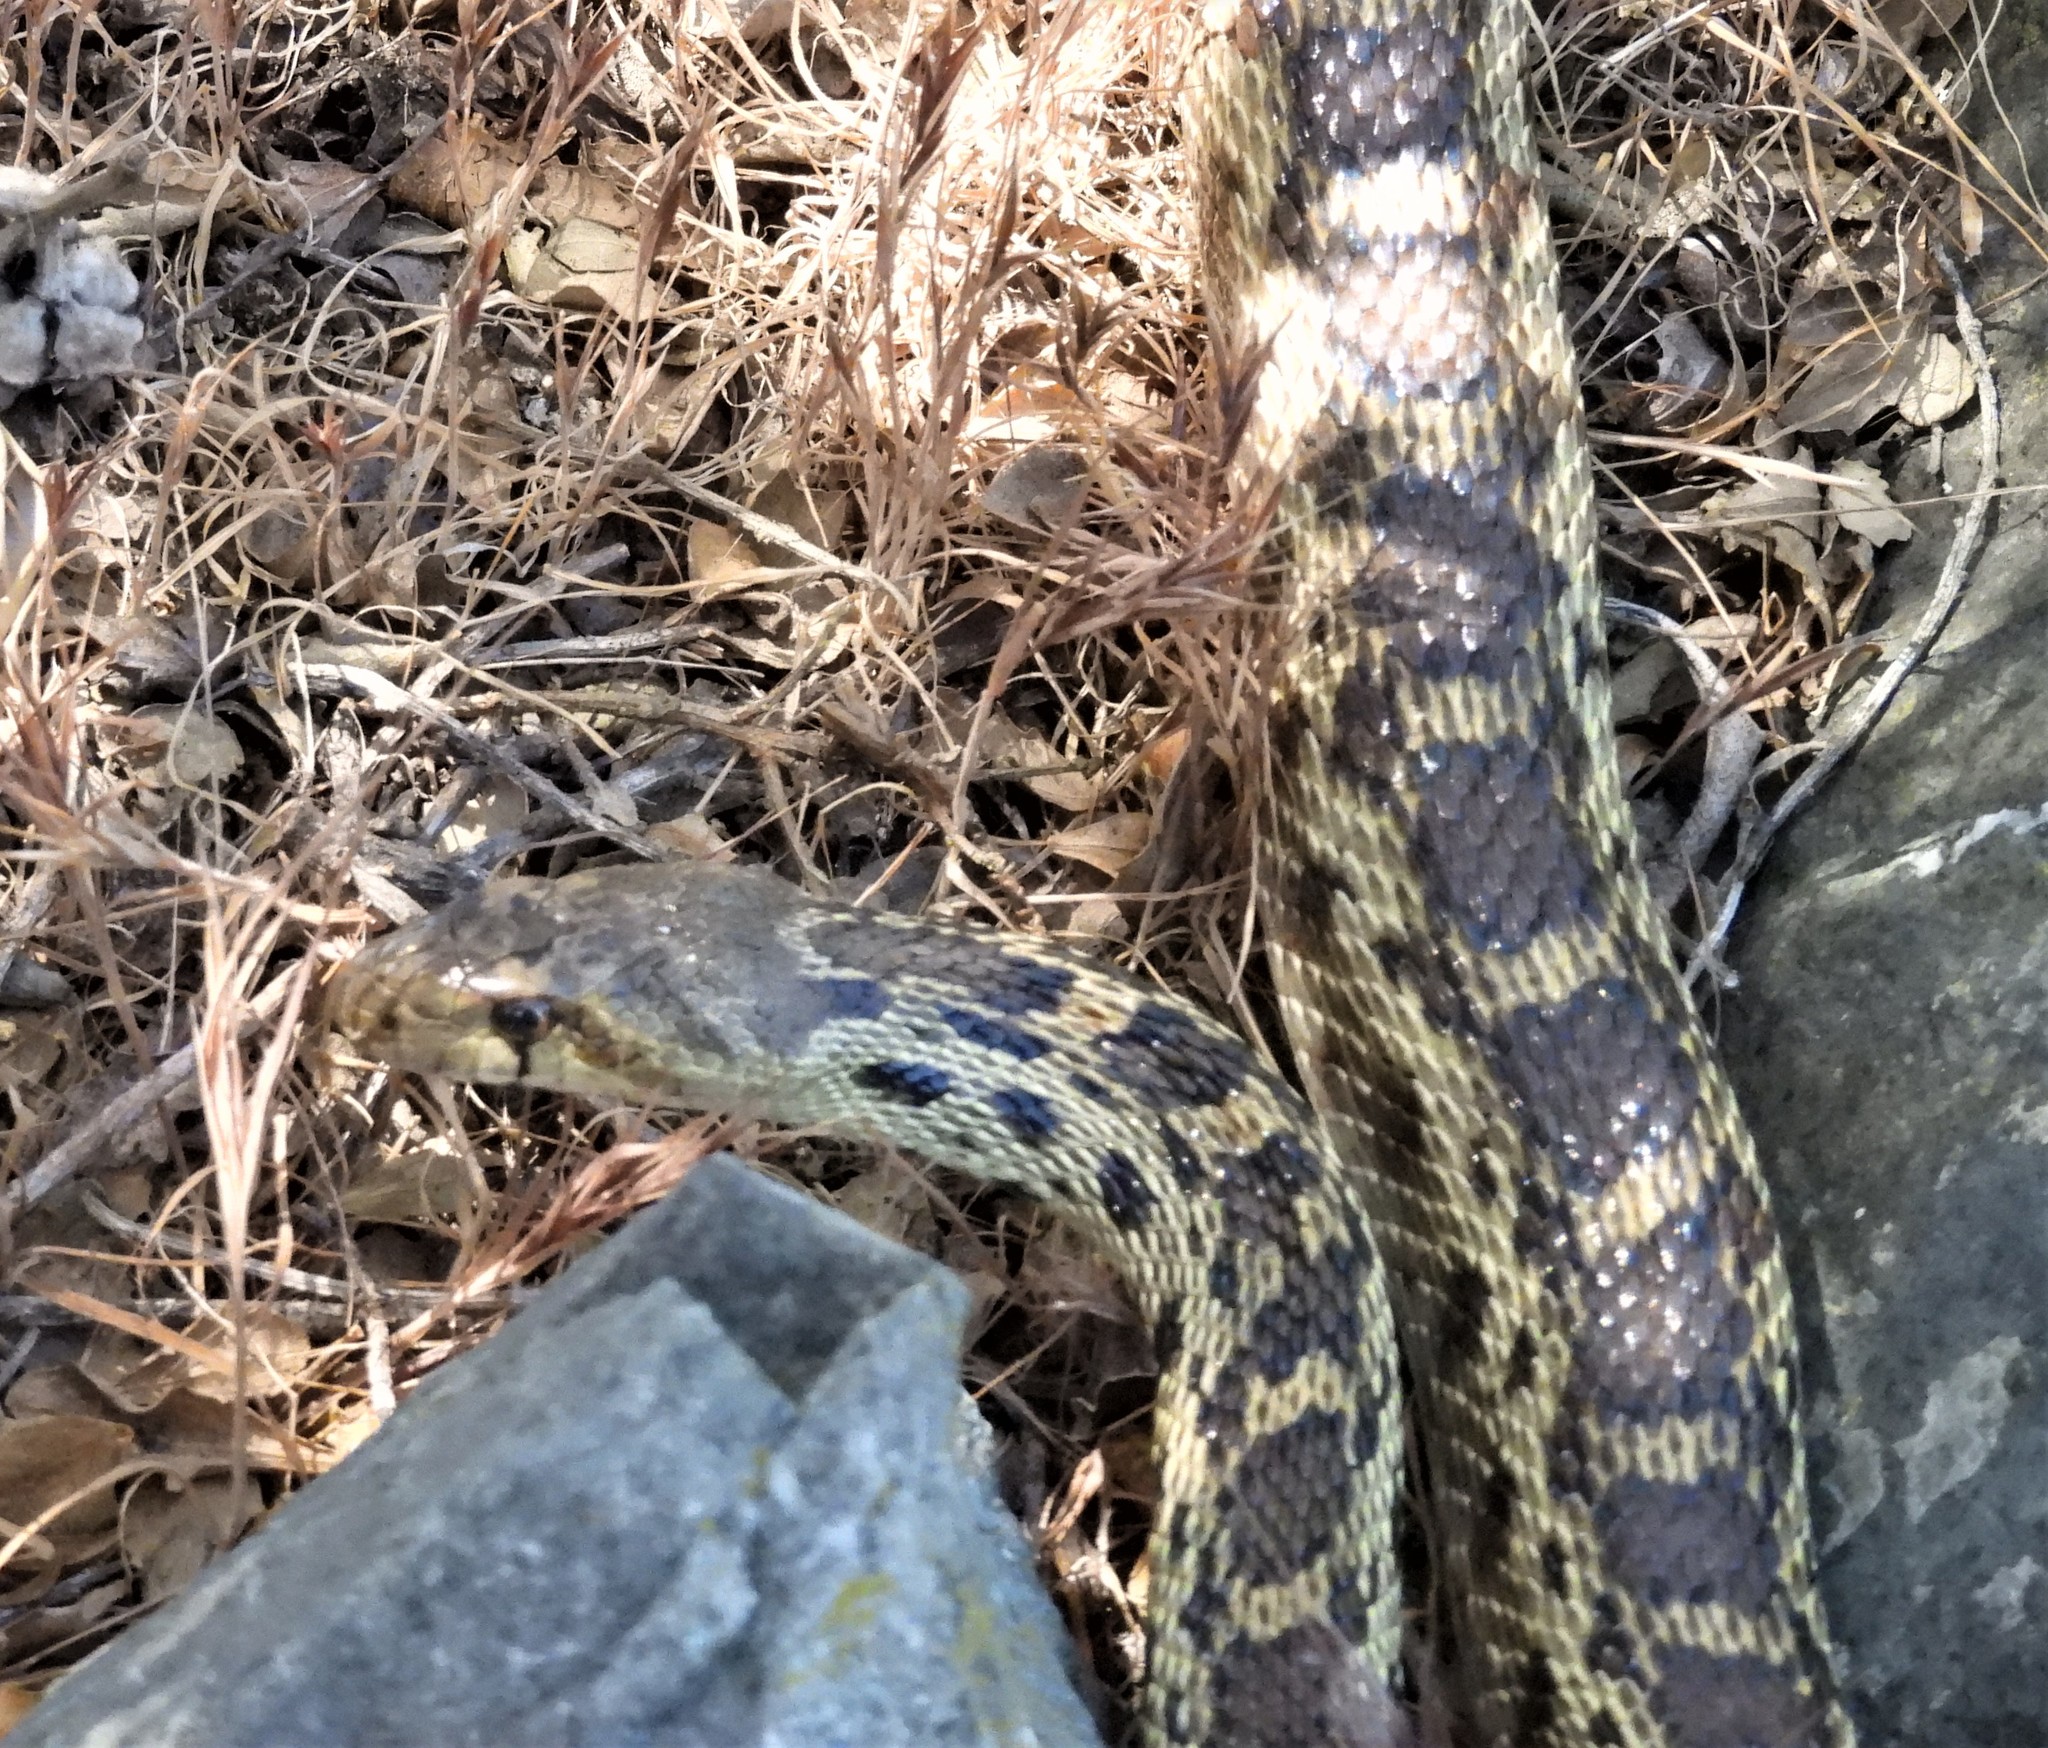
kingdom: Animalia
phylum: Chordata
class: Squamata
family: Colubridae
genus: Pituophis
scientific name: Pituophis catenifer
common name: Gopher snake
